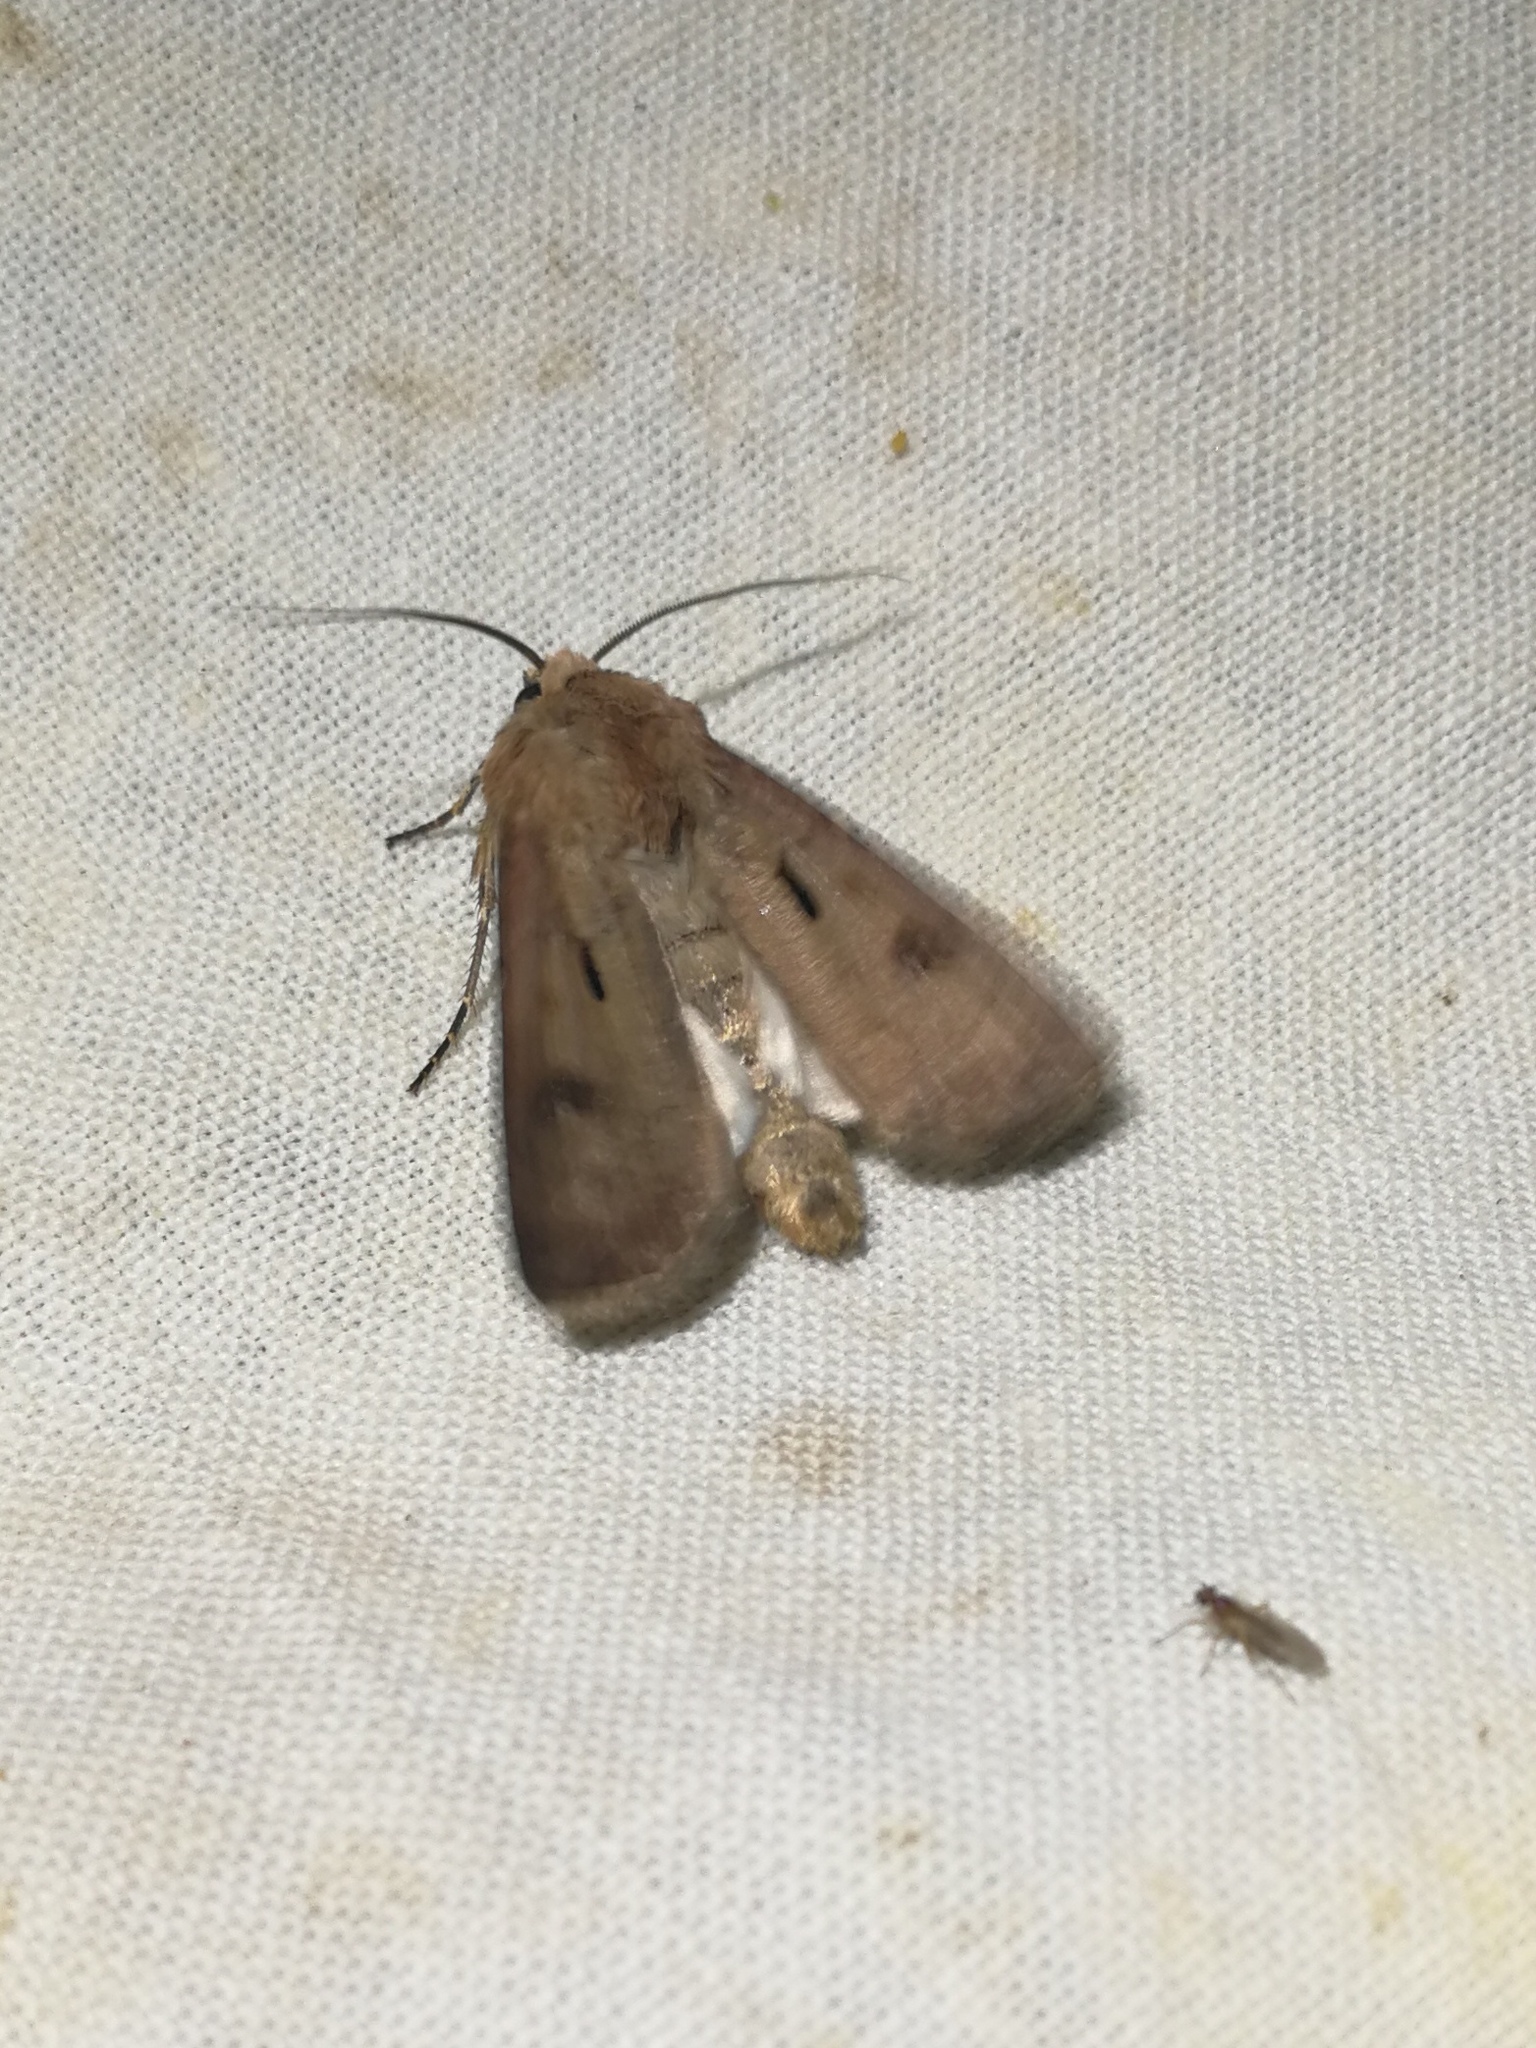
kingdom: Animalia
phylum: Arthropoda
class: Insecta
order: Lepidoptera
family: Noctuidae
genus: Agrotis
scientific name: Agrotis exclamationis
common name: Heart and dart
